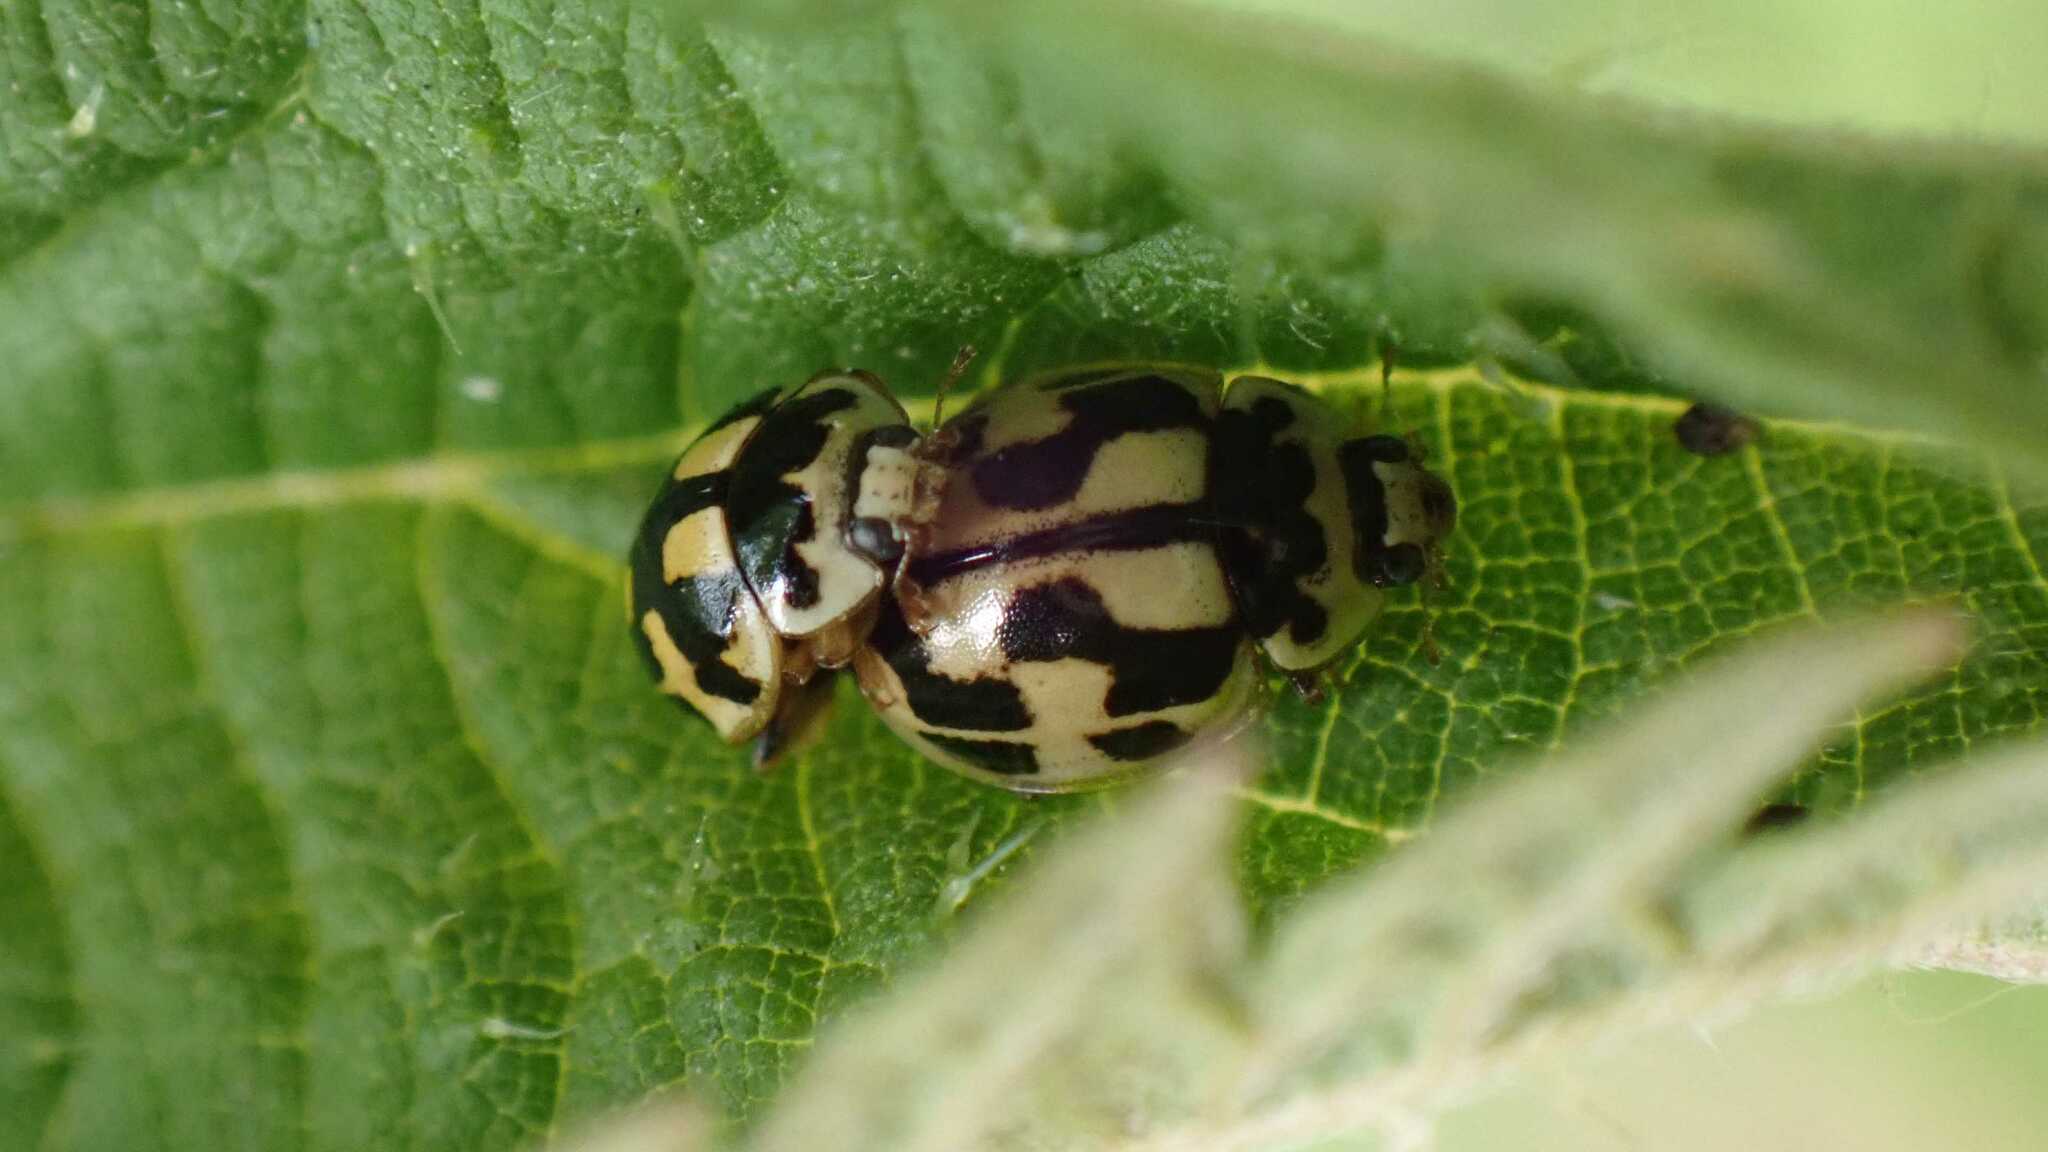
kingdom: Animalia
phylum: Arthropoda
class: Insecta
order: Coleoptera
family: Coccinellidae
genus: Propylaea
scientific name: Propylaea quatuordecimpunctata
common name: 14-spotted ladybird beetle
